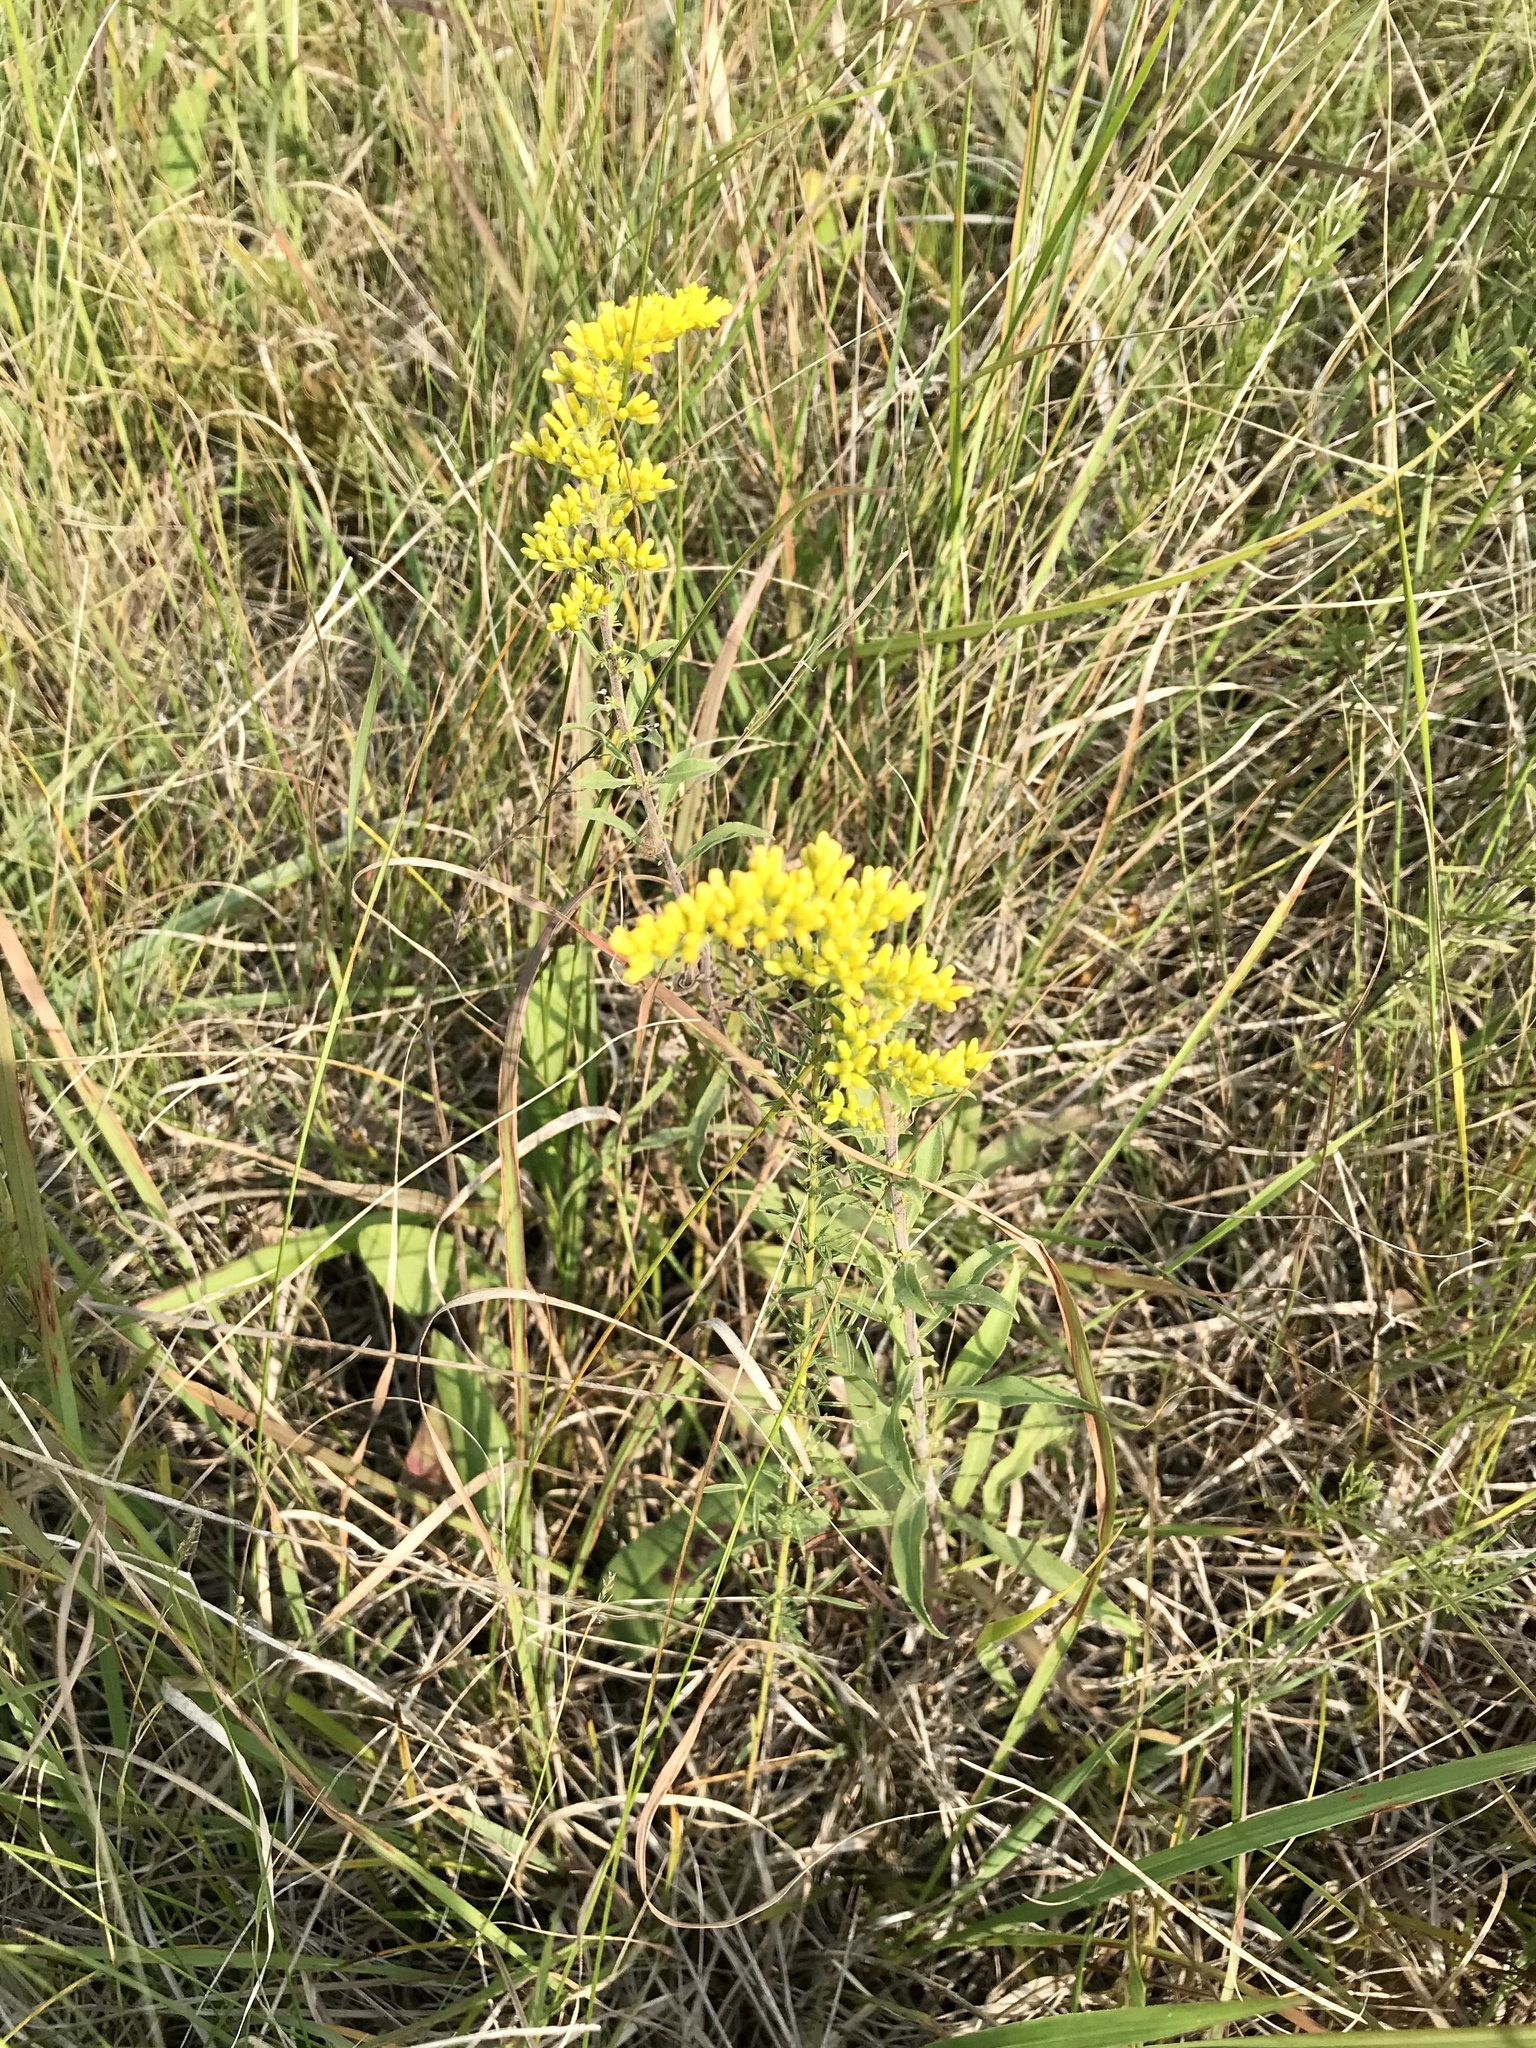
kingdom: Plantae
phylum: Tracheophyta
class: Magnoliopsida
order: Asterales
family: Asteraceae
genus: Solidago
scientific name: Solidago nemoralis
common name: Grey goldenrod
